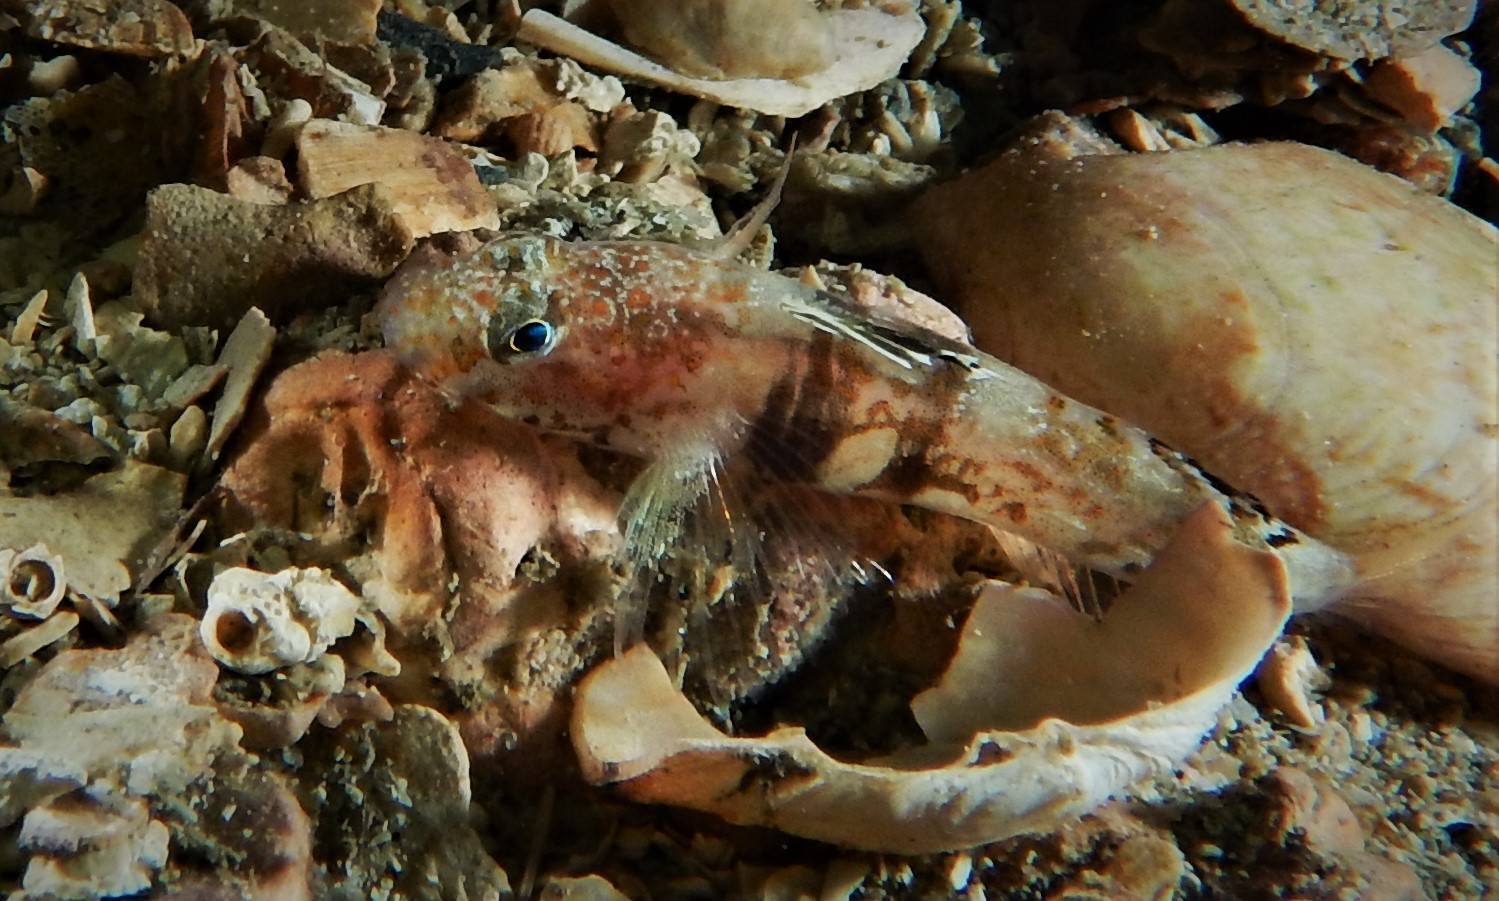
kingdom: Animalia
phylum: Chordata
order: Perciformes
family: Gobiidae
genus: Lebetus
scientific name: Lebetus scorpioides
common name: Diminutive goby
